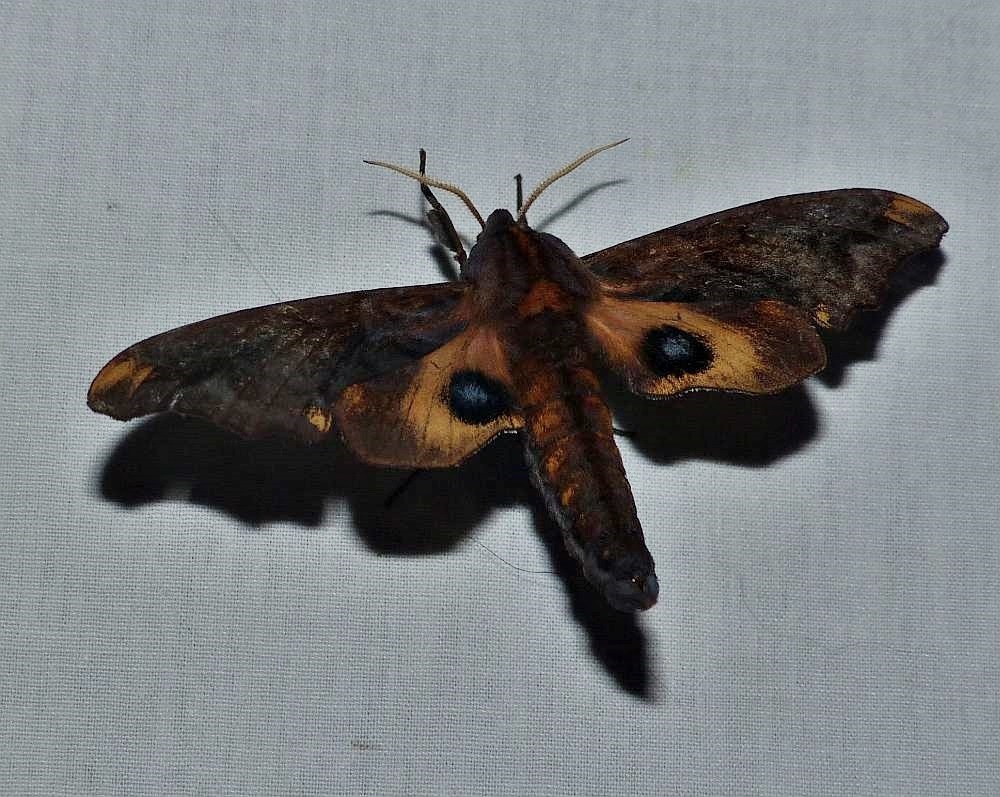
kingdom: Animalia
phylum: Arthropoda
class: Insecta
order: Lepidoptera
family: Sphingidae
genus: Paonias
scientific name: Paonias myops
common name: Small-eyed sphinx
